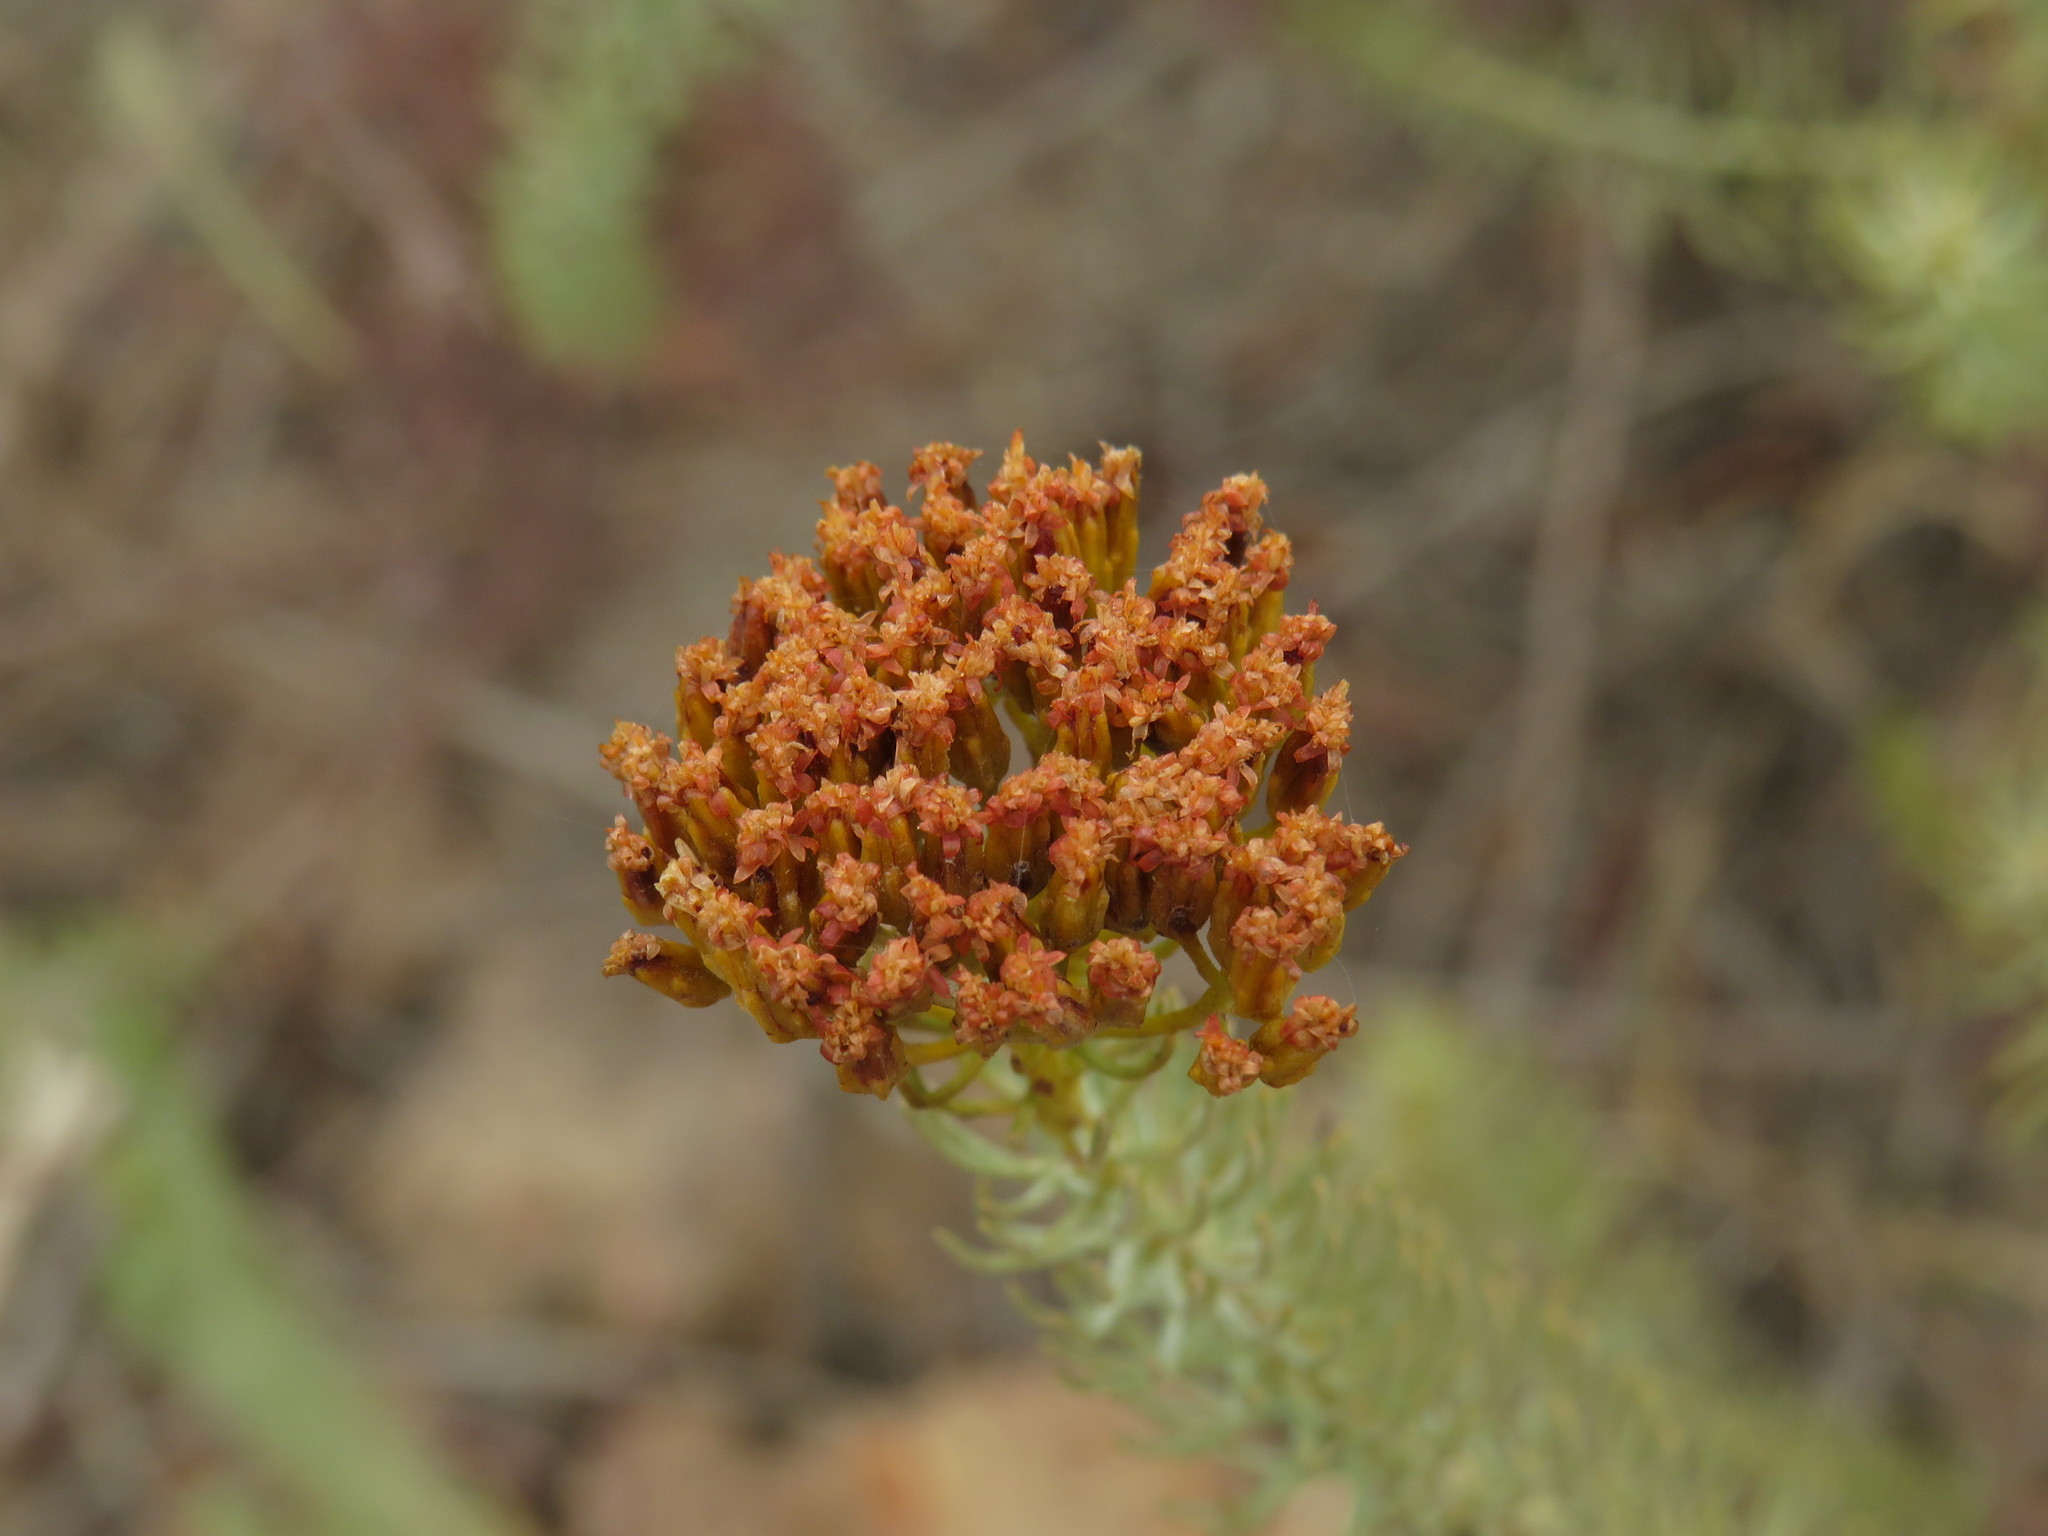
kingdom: Plantae
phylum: Tracheophyta
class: Magnoliopsida
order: Asterales
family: Asteraceae
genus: Athanasia
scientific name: Athanasia vestita
